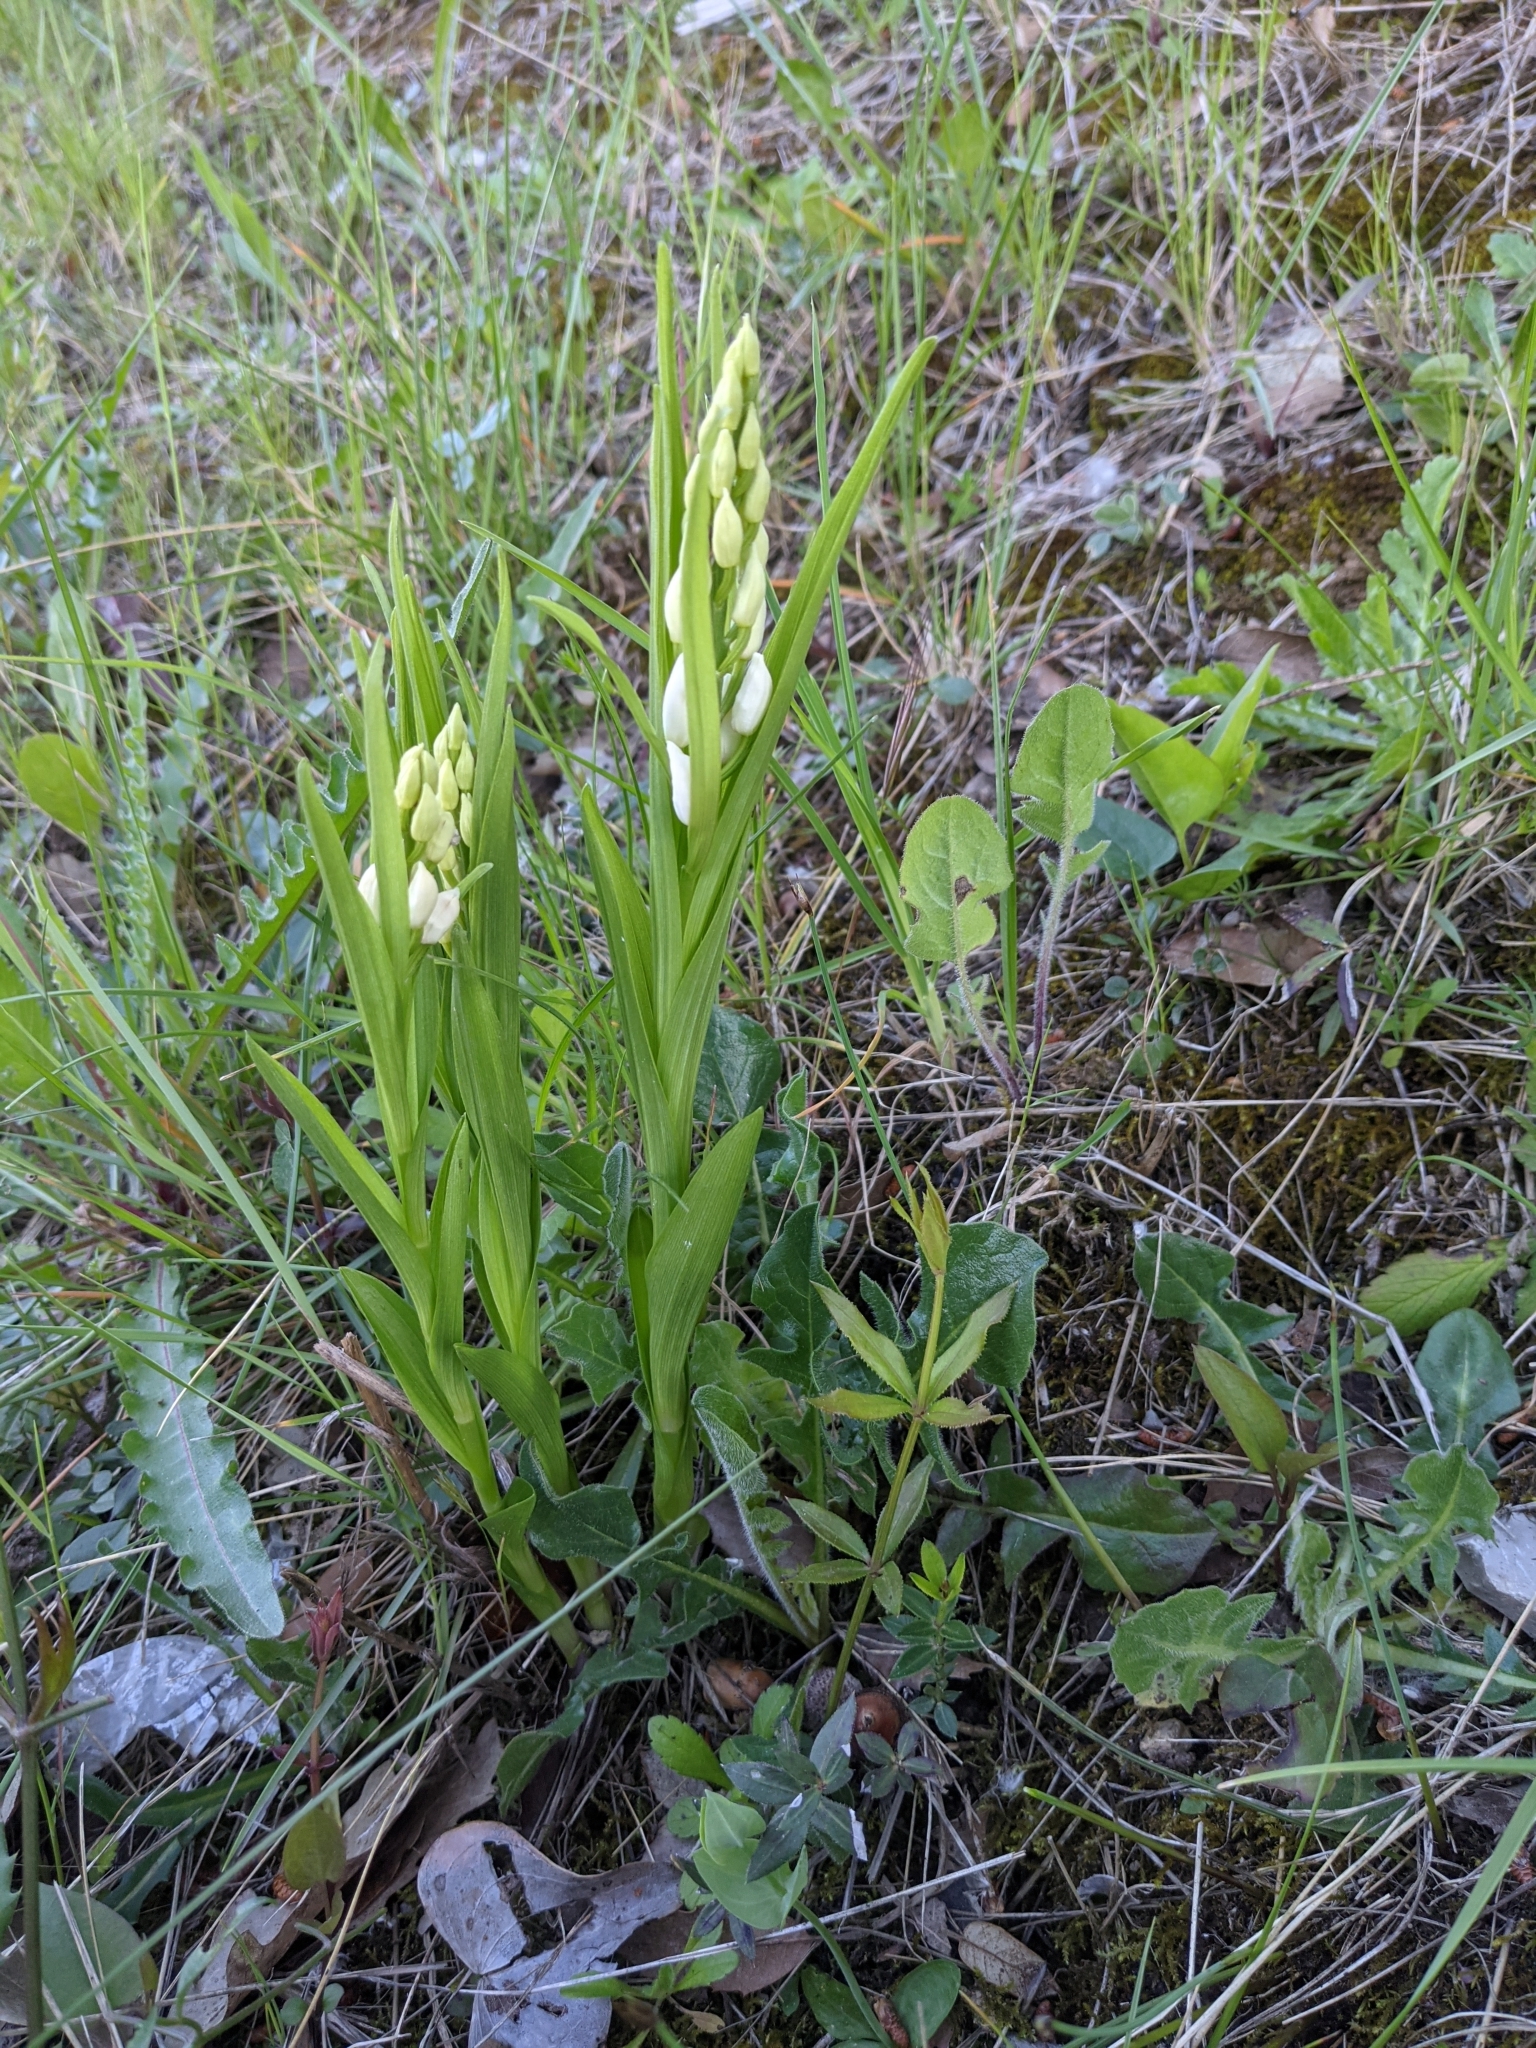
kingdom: Plantae
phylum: Tracheophyta
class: Liliopsida
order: Asparagales
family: Orchidaceae
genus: Cephalanthera
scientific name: Cephalanthera longifolia
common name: Narrow-leaved helleborine
